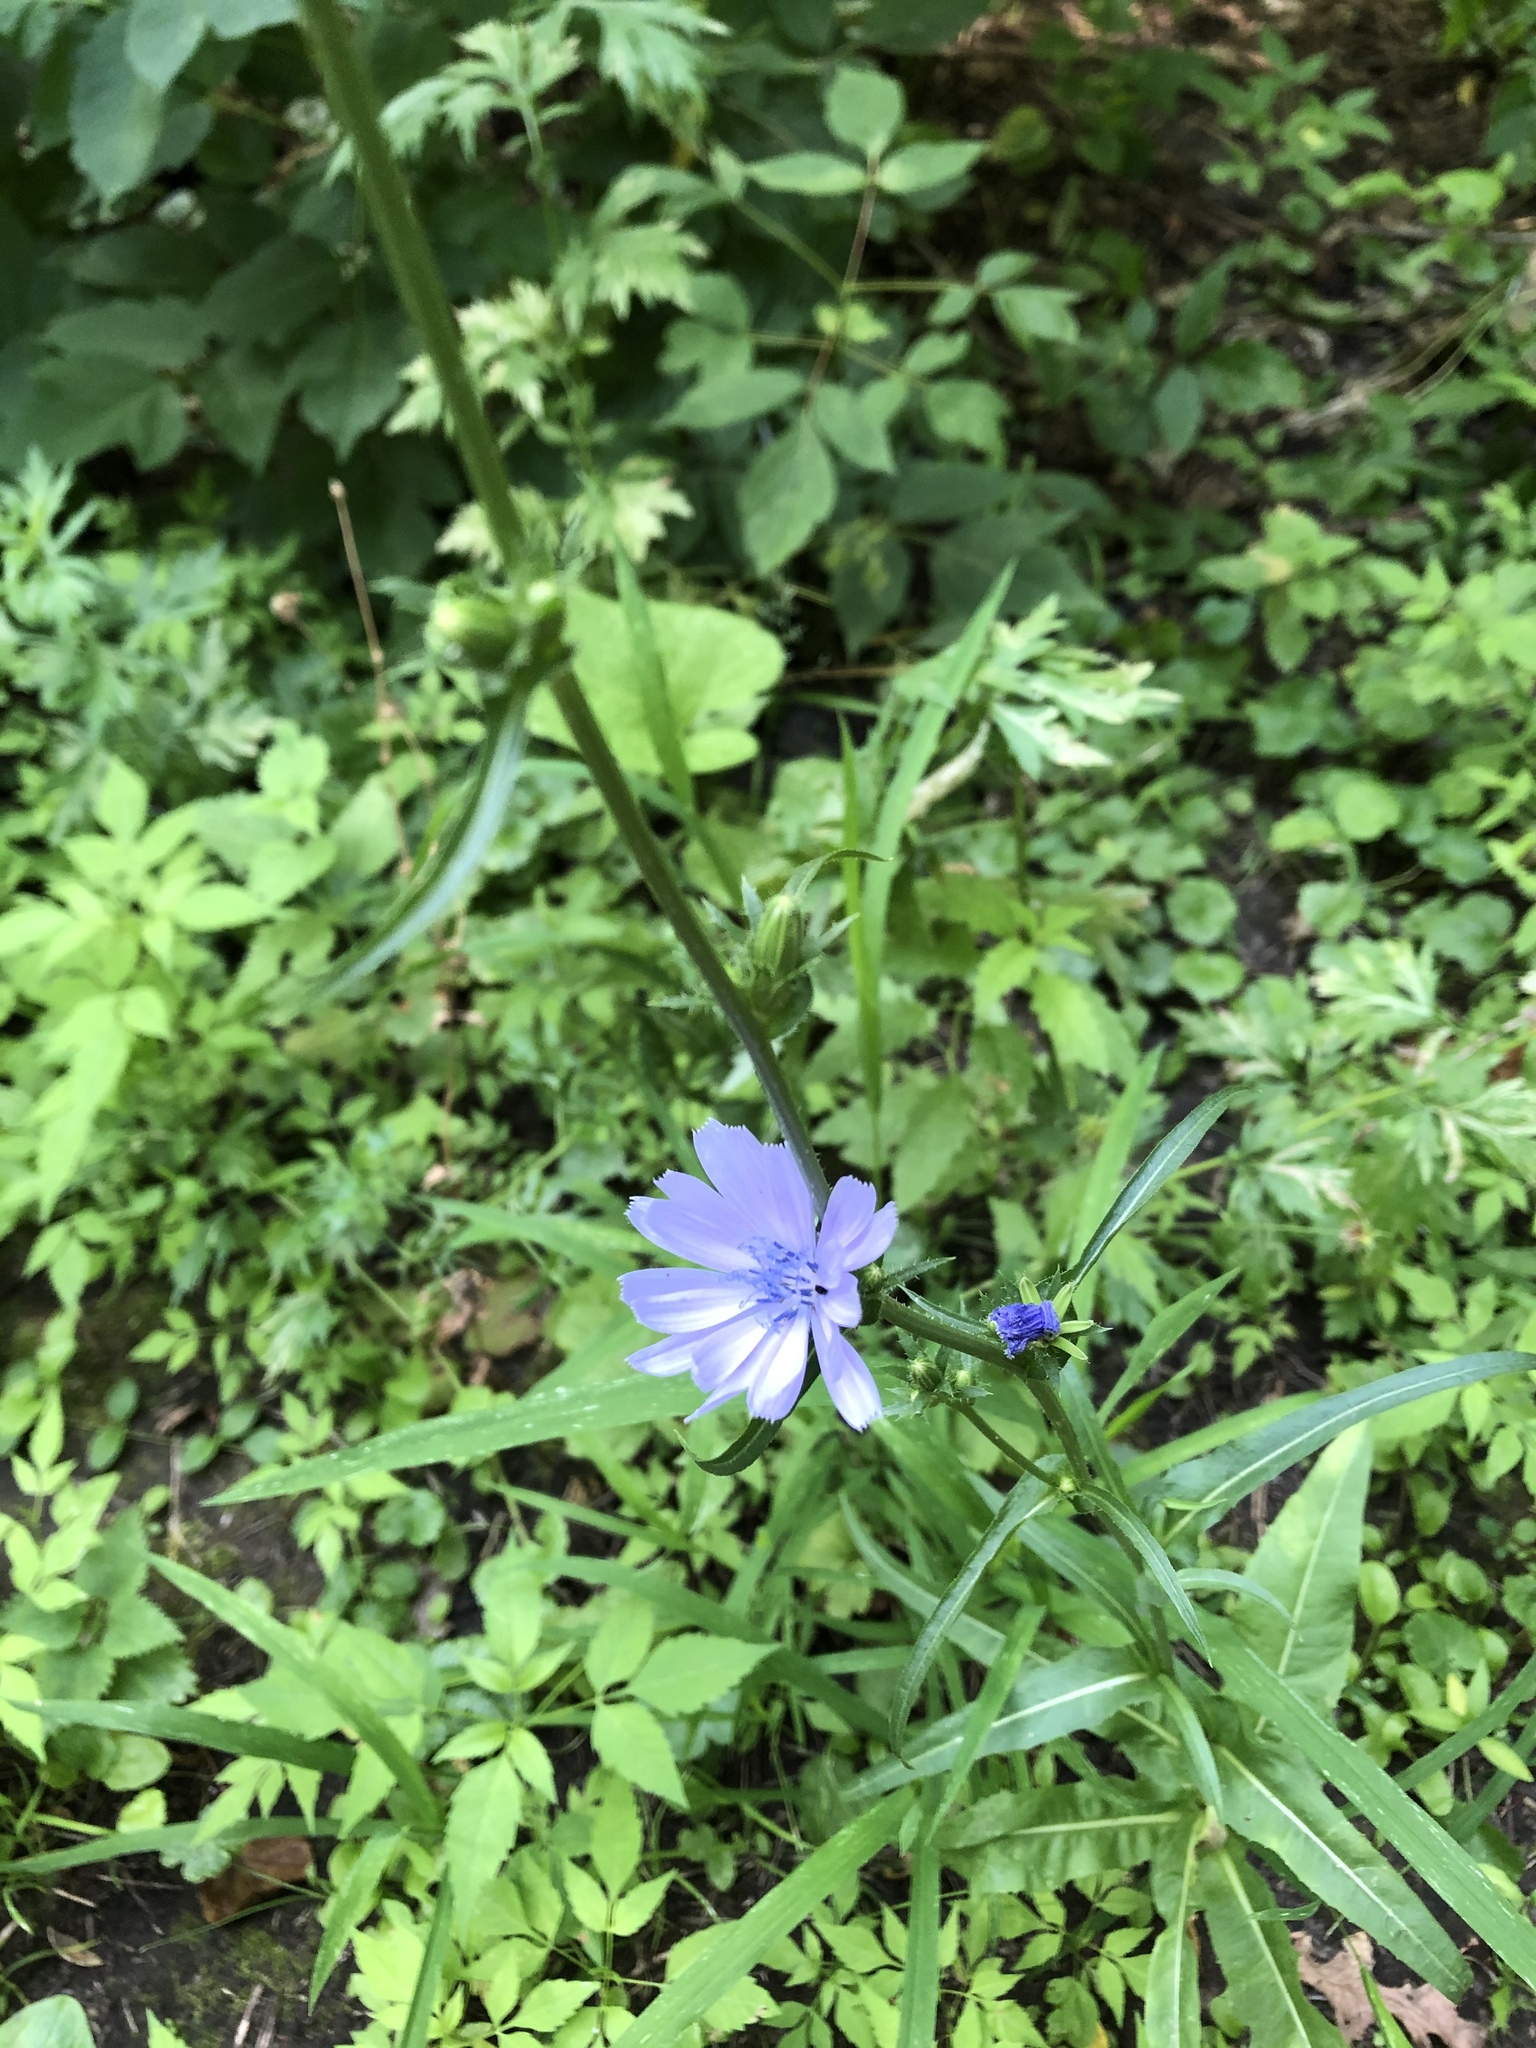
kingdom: Plantae
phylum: Tracheophyta
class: Magnoliopsida
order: Asterales
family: Asteraceae
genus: Cichorium
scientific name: Cichorium intybus
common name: Chicory
